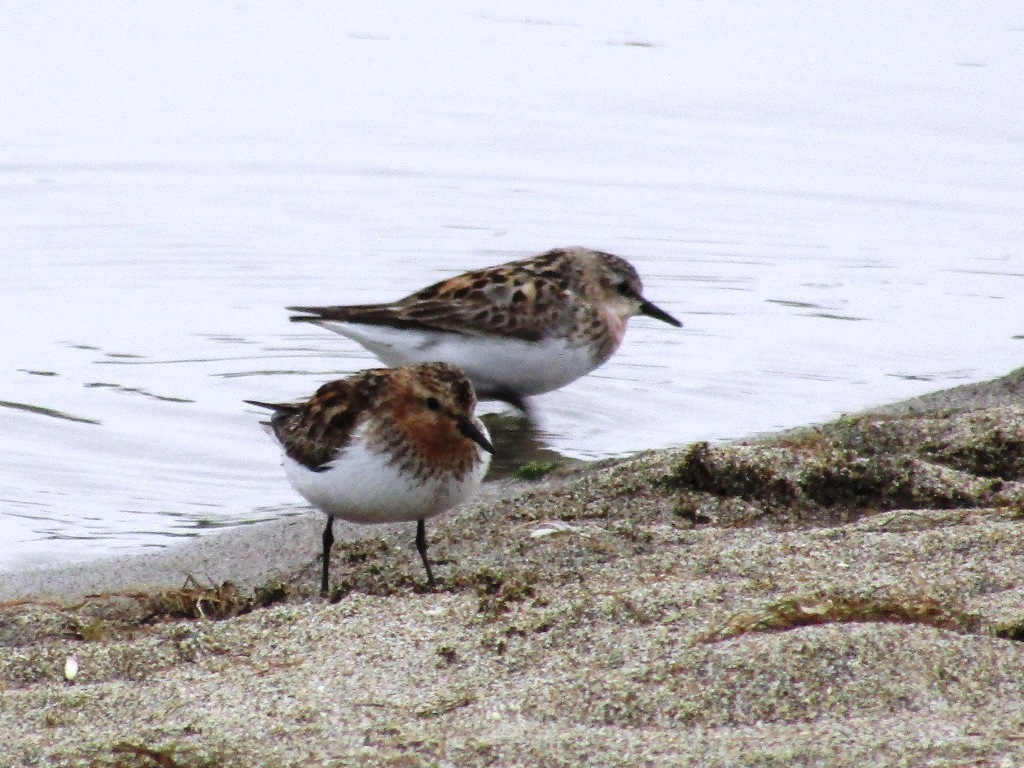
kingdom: Animalia
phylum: Chordata
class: Aves
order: Charadriiformes
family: Scolopacidae
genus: Calidris
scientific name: Calidris ruficollis
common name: Red-necked stint
